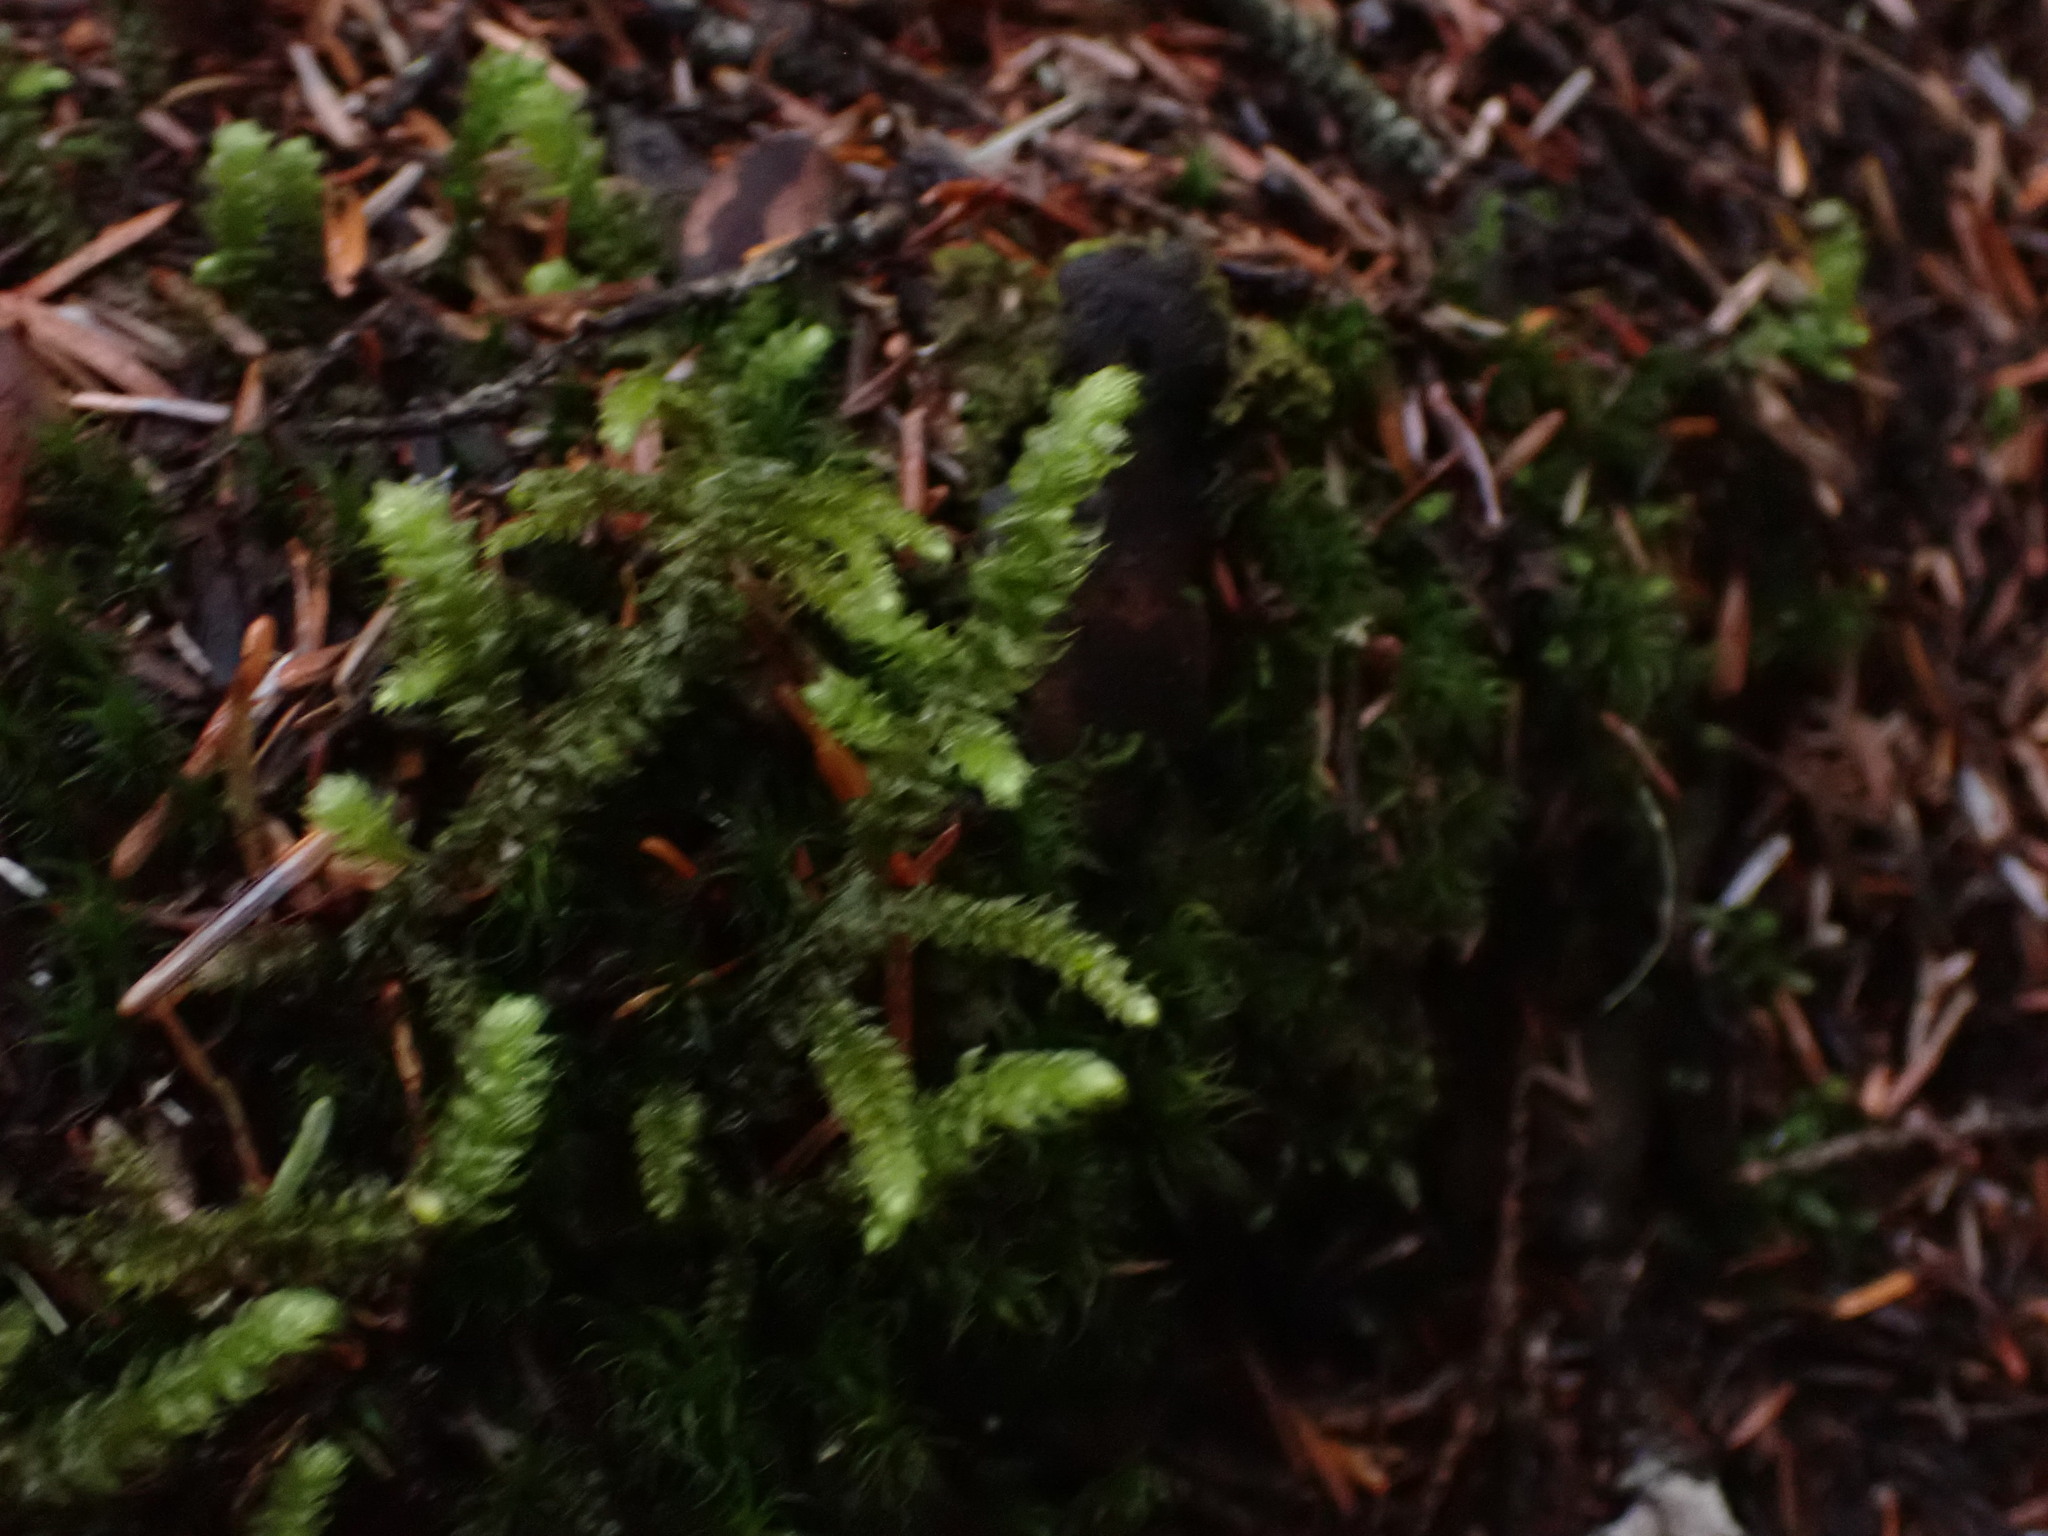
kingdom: Plantae
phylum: Bryophyta
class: Bryopsida
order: Hypnales
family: Hylocomiaceae
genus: Rhytidiopsis
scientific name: Rhytidiopsis robusta
